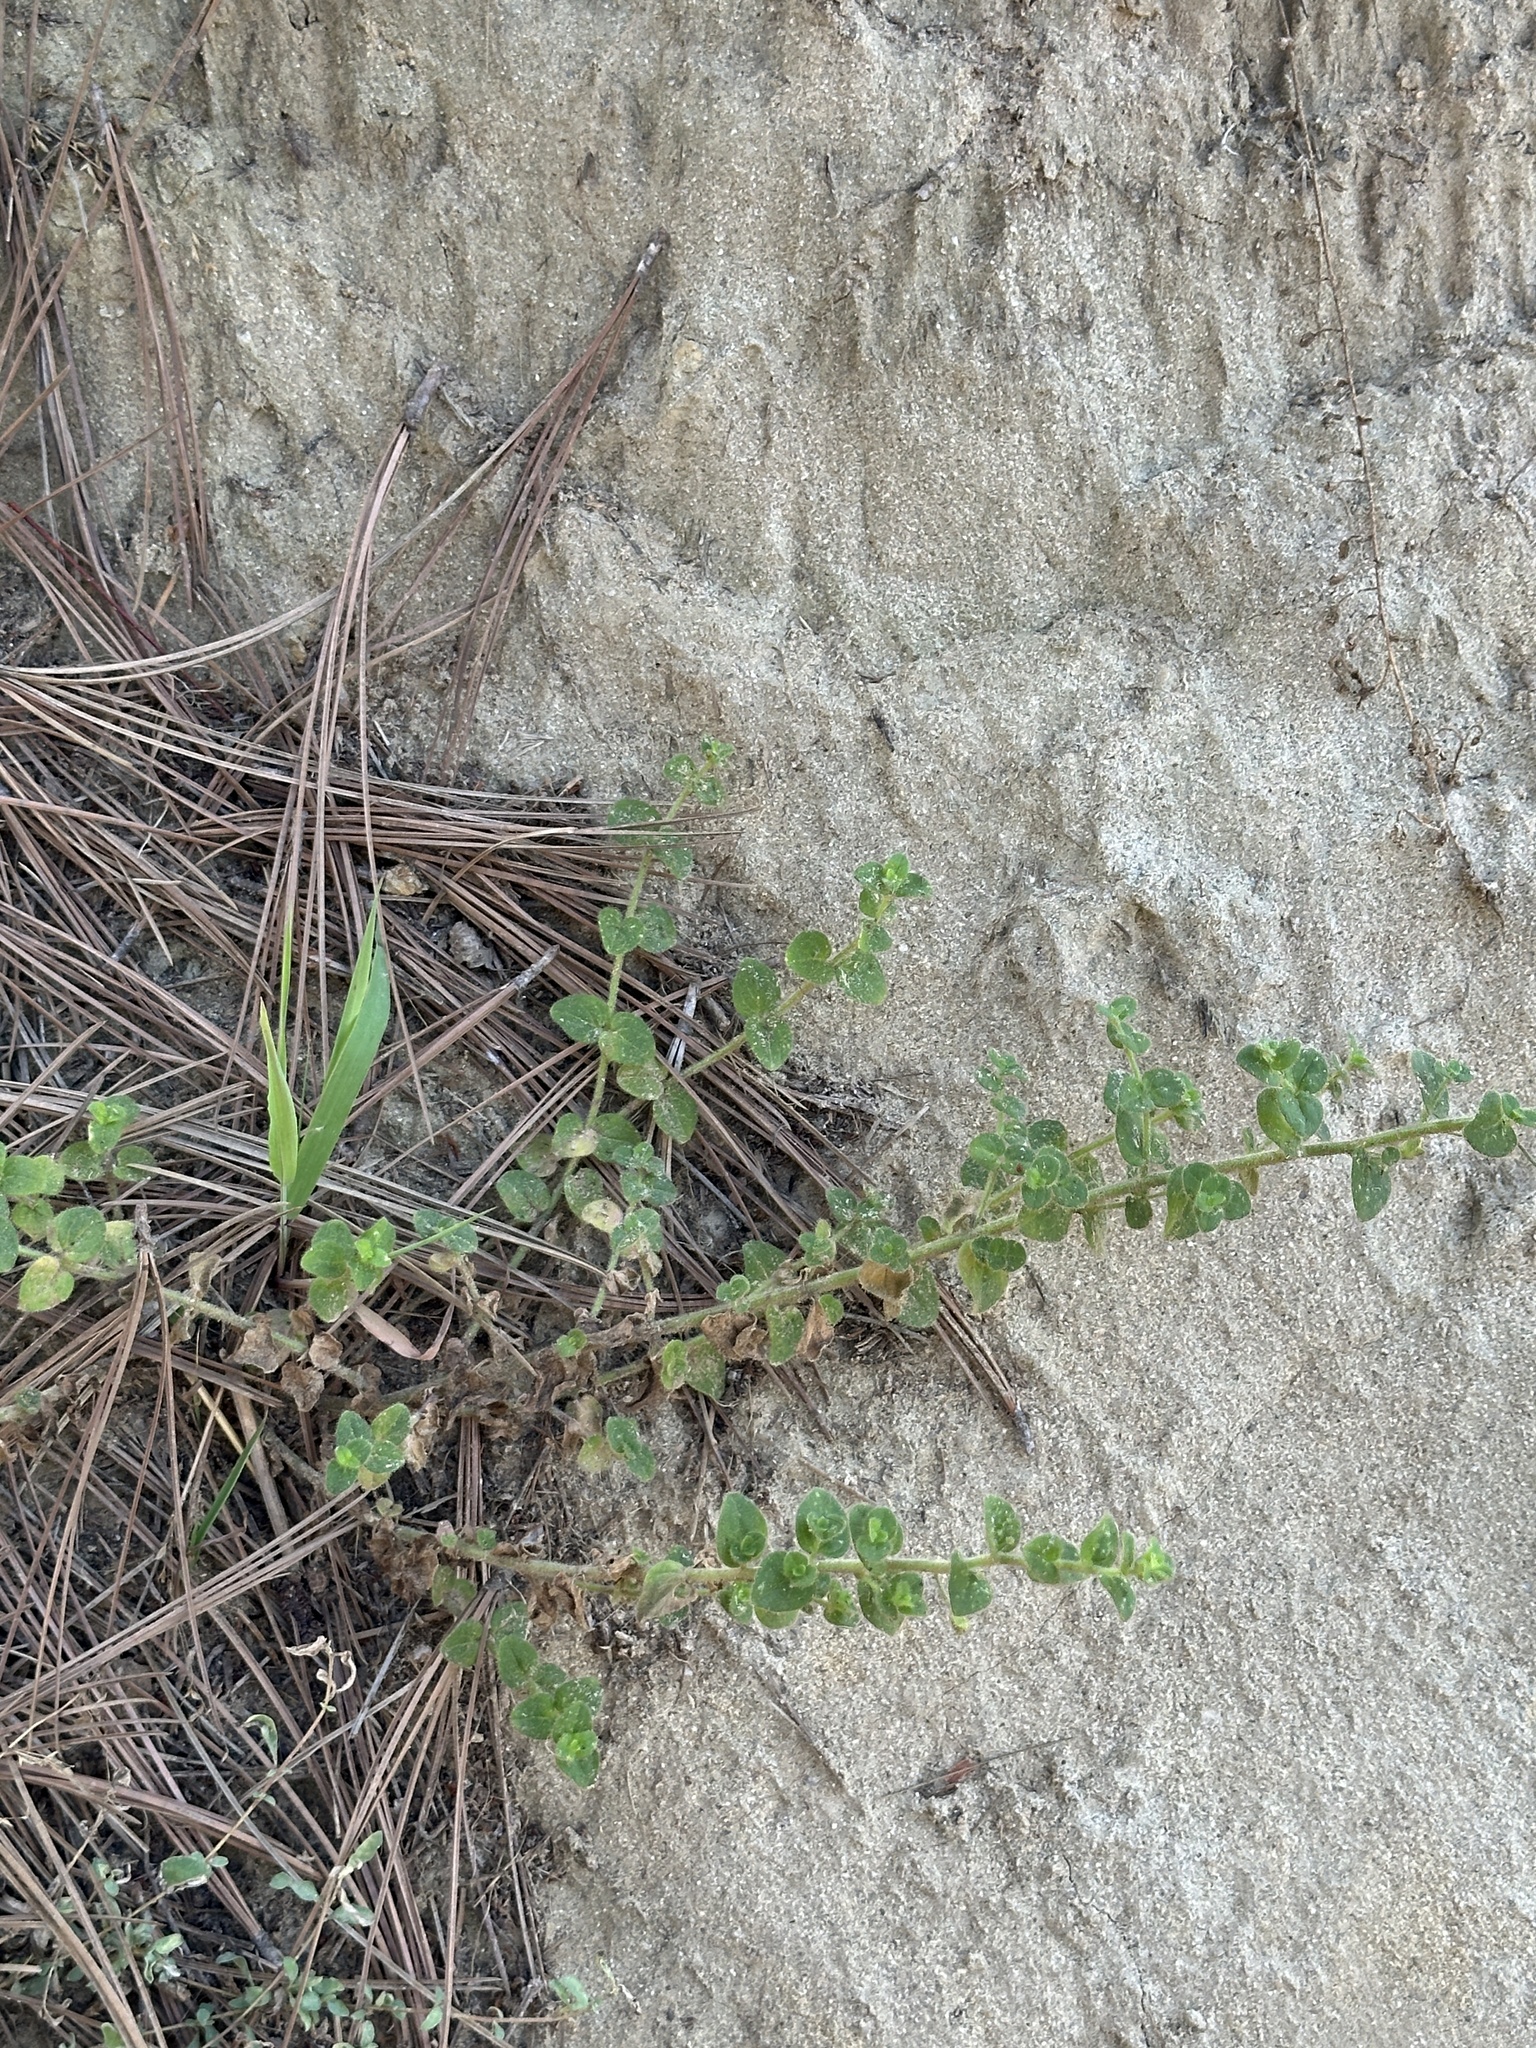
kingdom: Plantae
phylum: Tracheophyta
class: Magnoliopsida
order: Lamiales
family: Plantaginaceae
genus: Sairocarpus
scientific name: Sairocarpus nuttallianus
